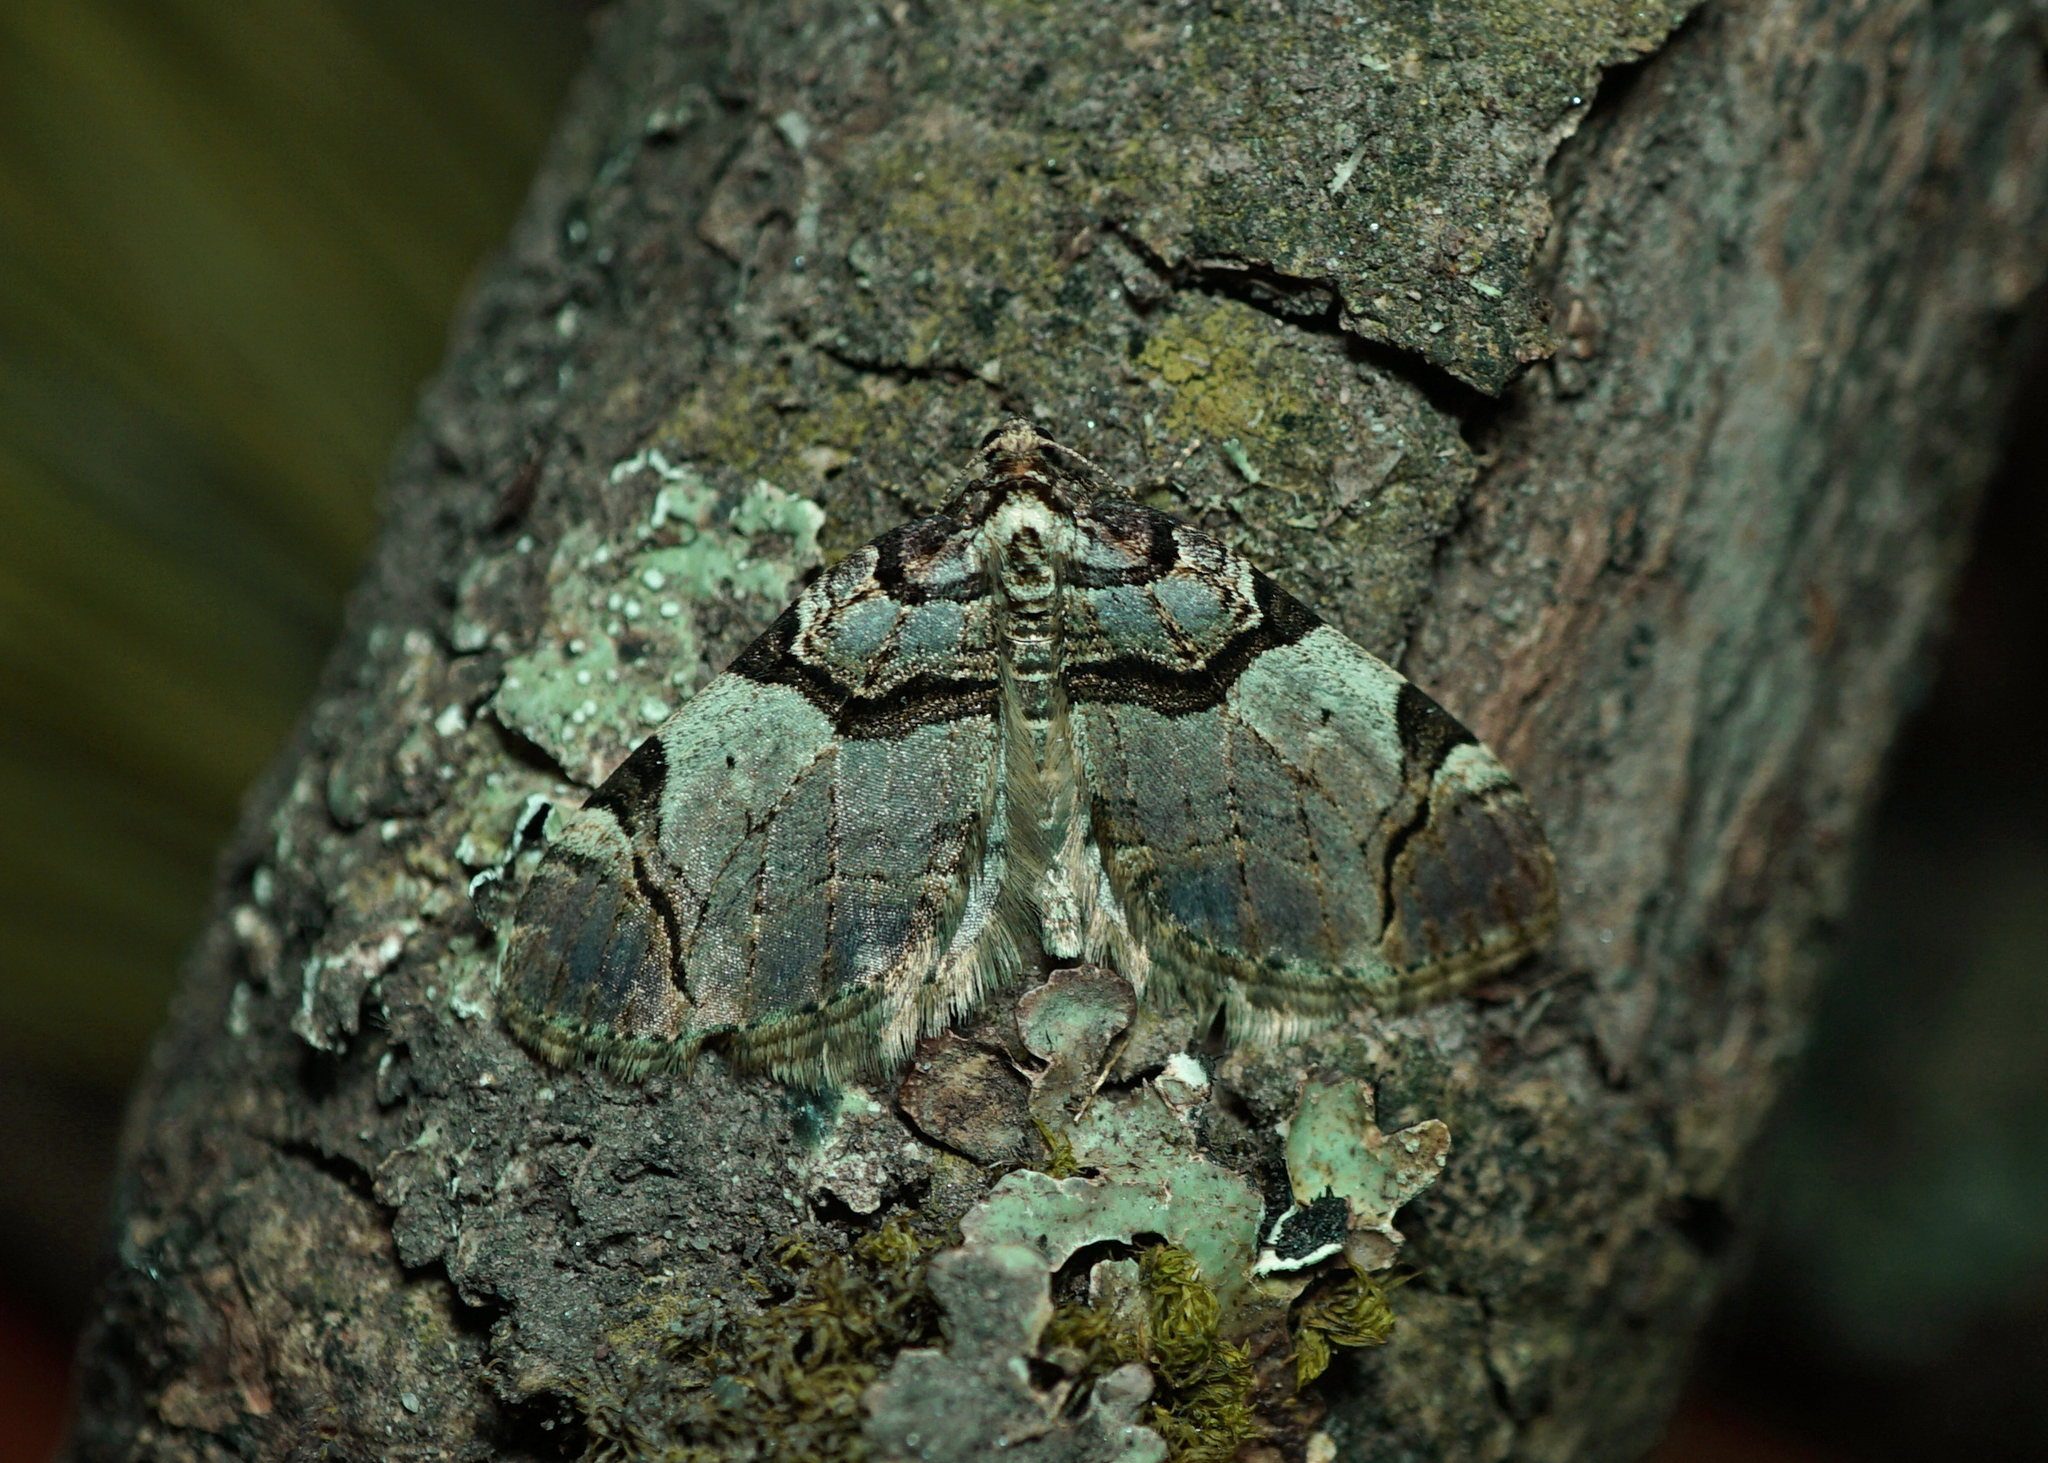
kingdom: Animalia
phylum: Arthropoda
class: Insecta
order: Lepidoptera
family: Geometridae
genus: Anticlea
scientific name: Anticlea derivata
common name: Streamer
